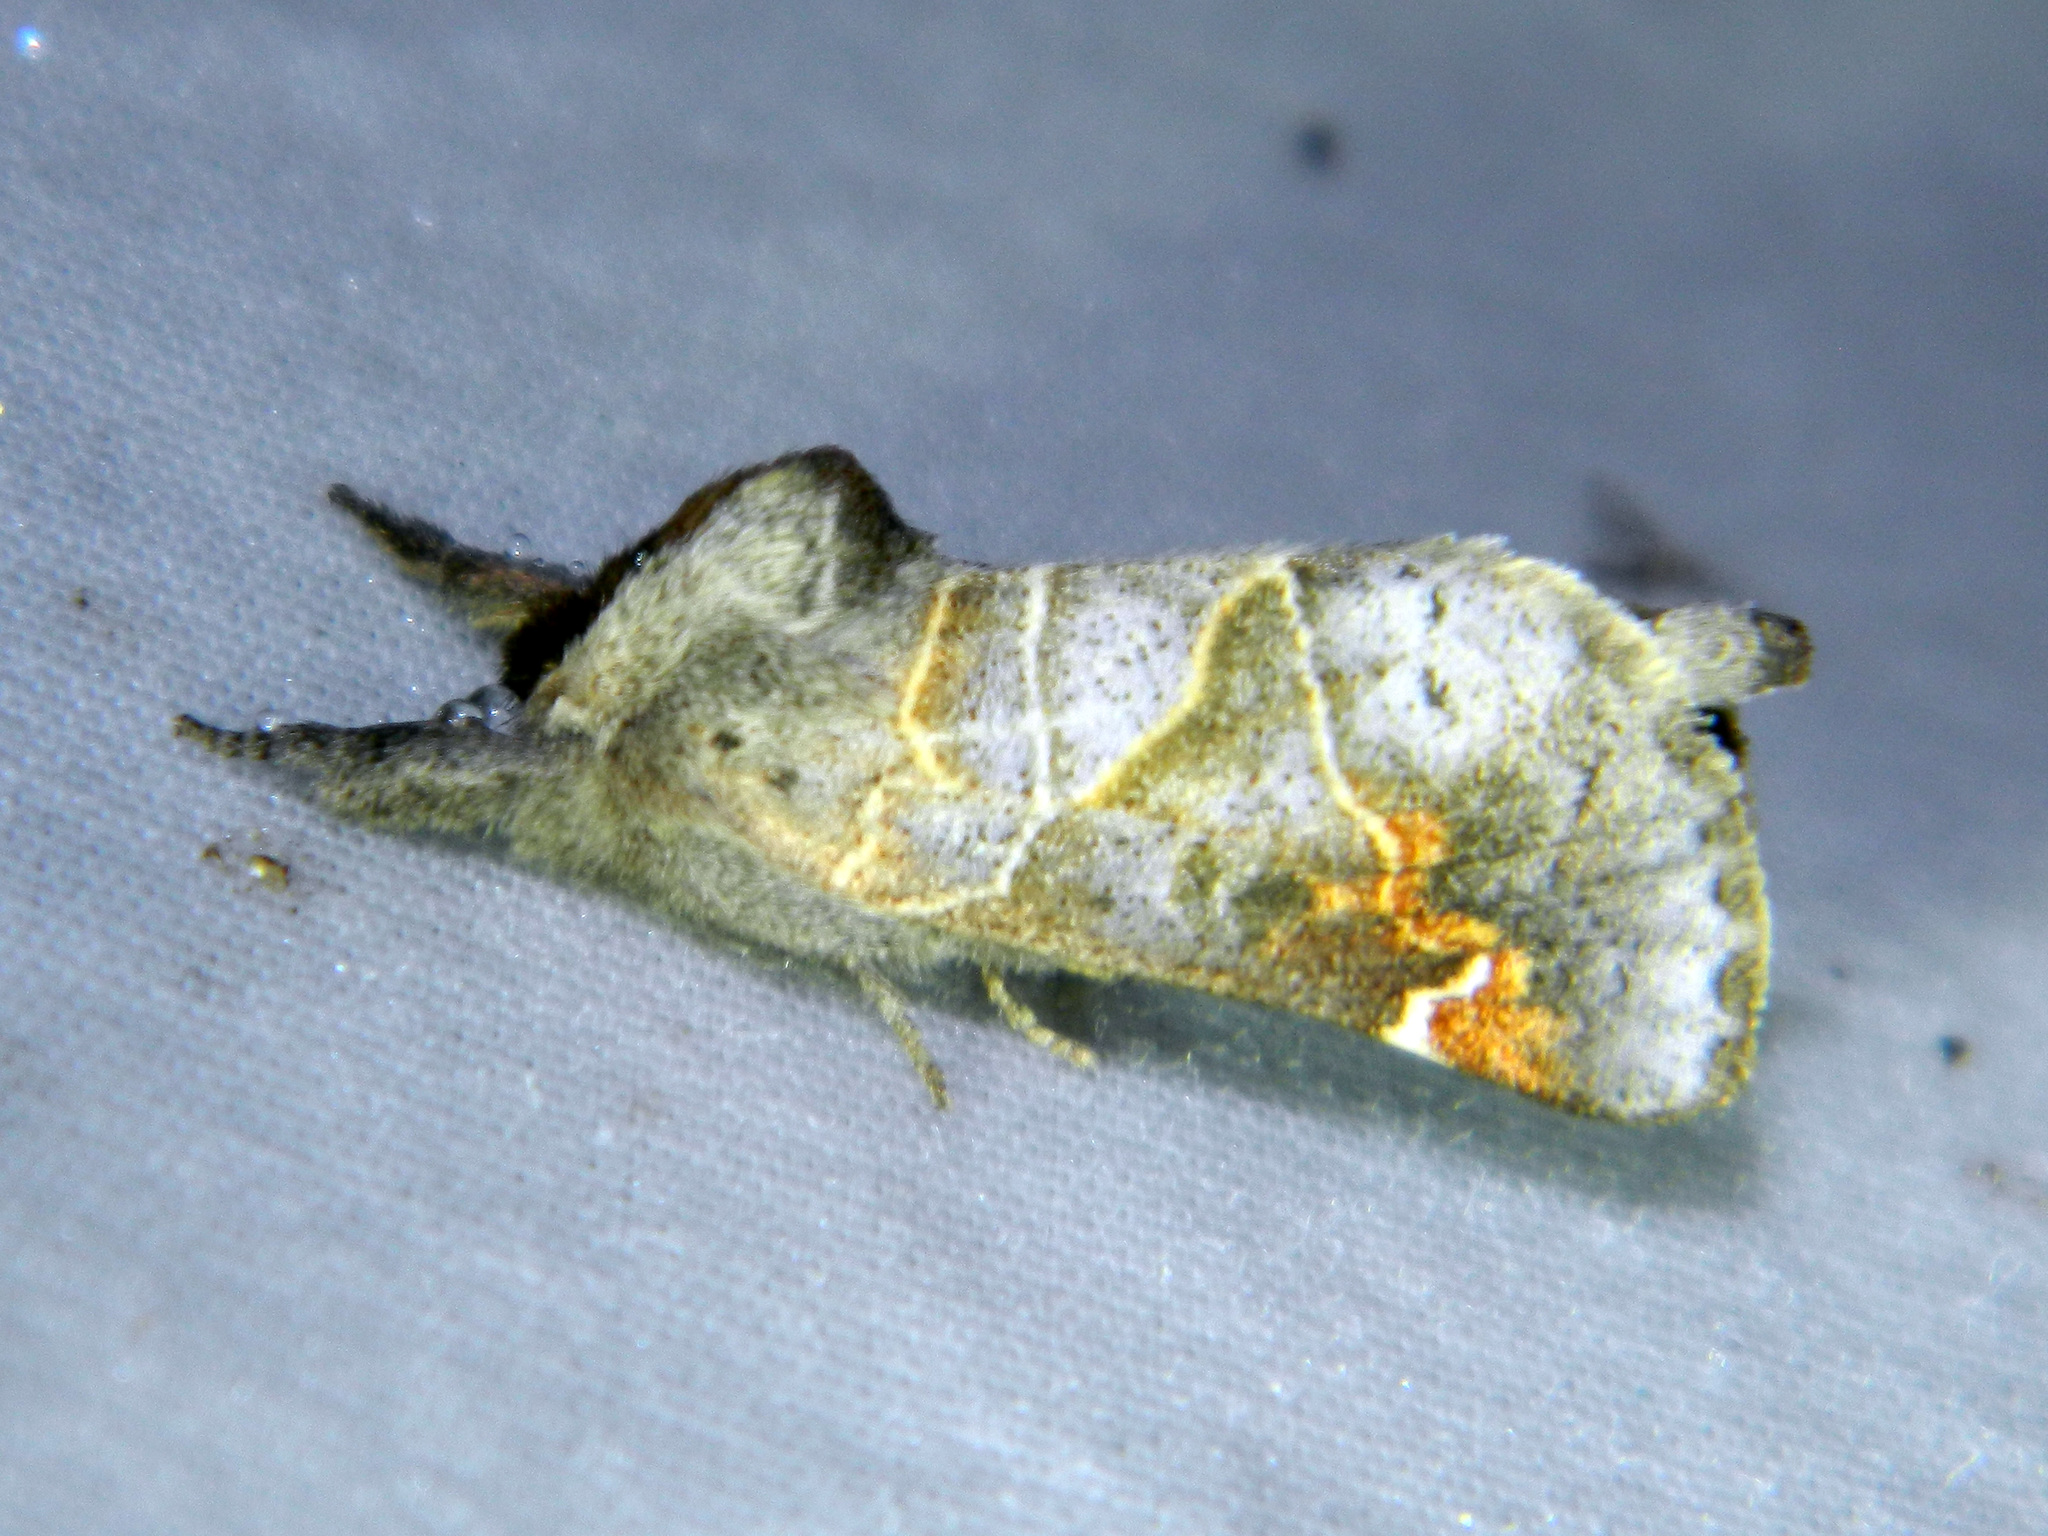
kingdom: Animalia
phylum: Arthropoda
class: Insecta
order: Lepidoptera
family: Notodontidae
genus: Clostera
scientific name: Clostera apicalis
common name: Apical prominent
